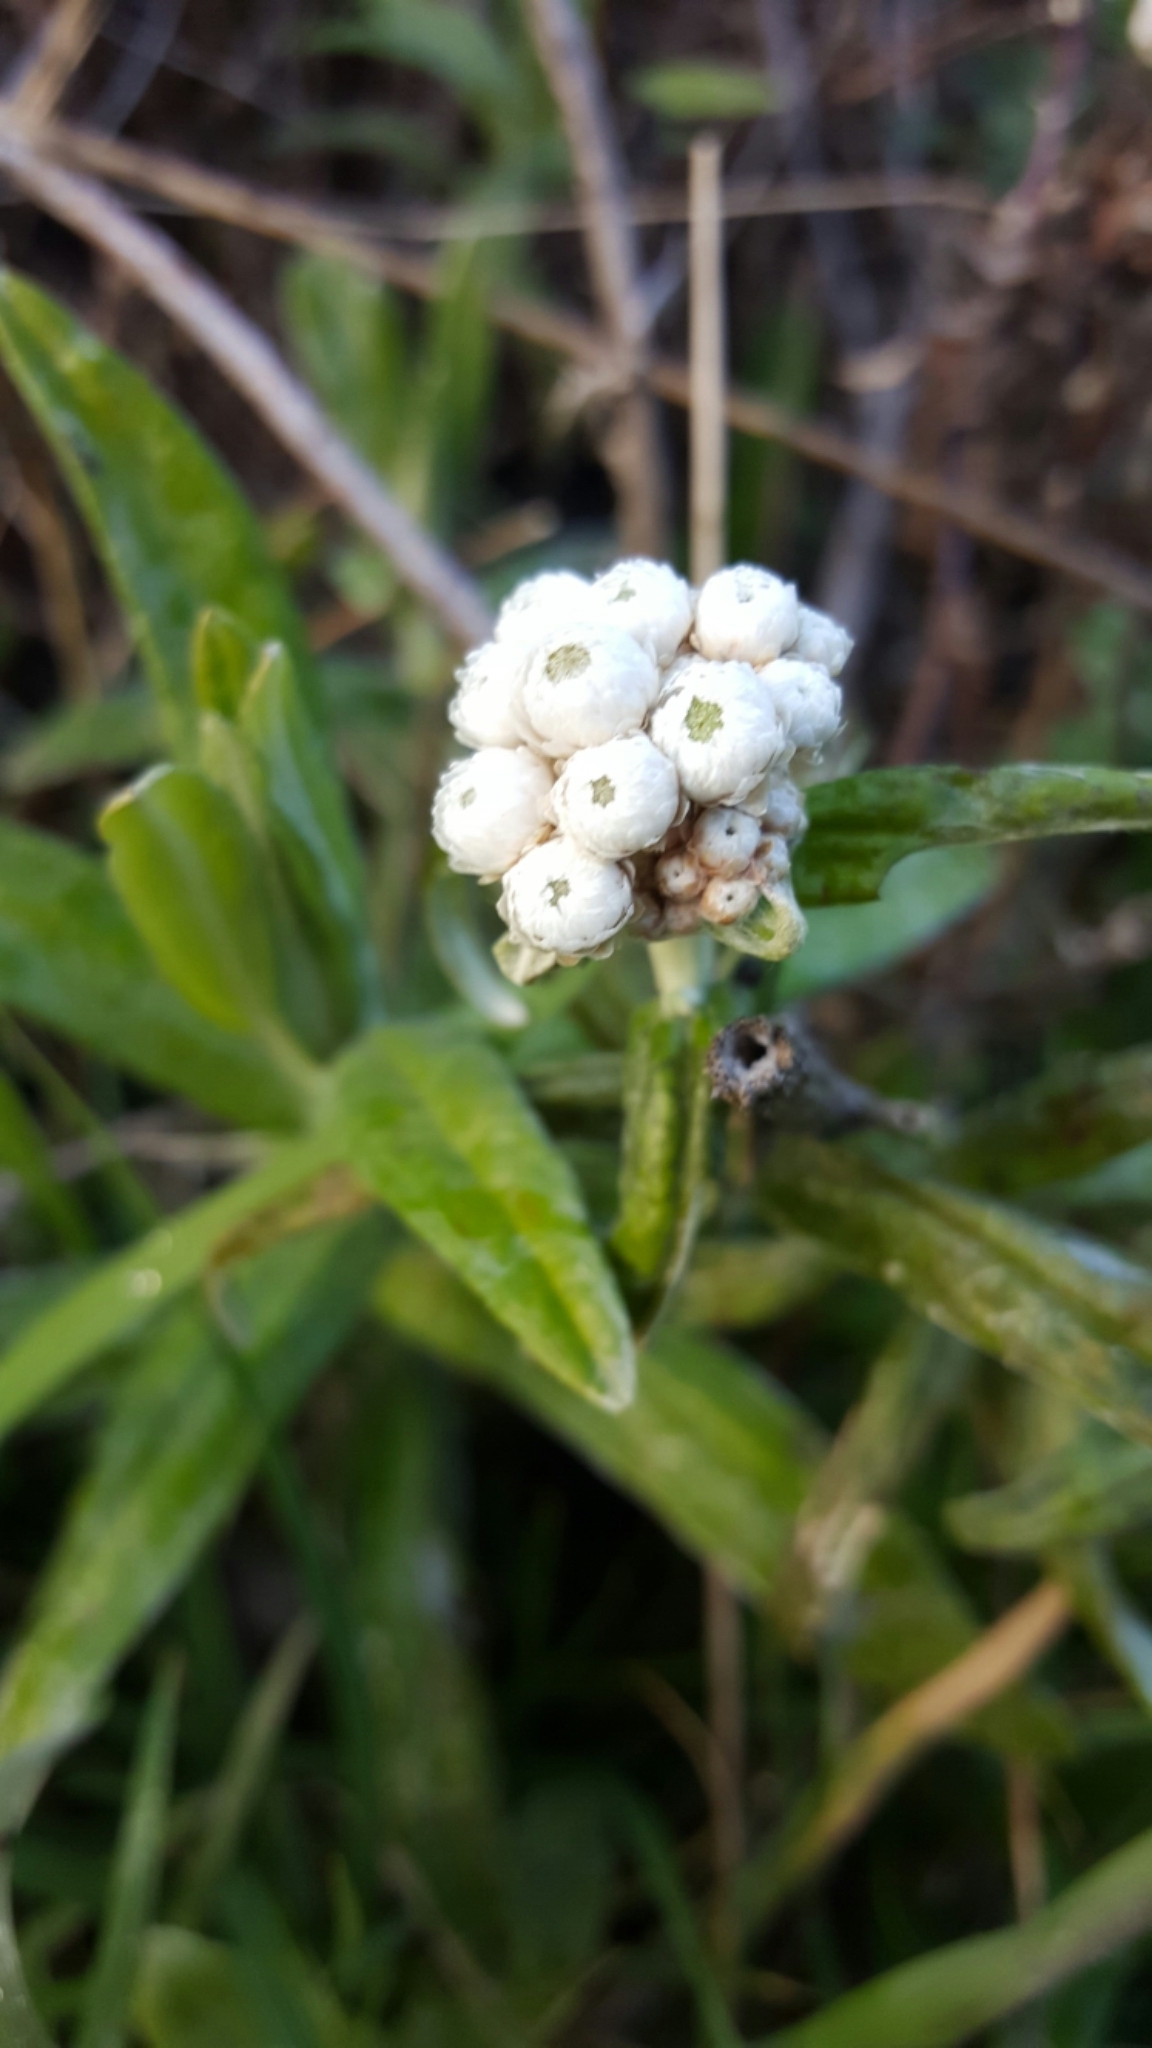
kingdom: Plantae
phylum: Tracheophyta
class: Magnoliopsida
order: Asterales
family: Asteraceae
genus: Anaphalis
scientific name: Anaphalis margaritacea
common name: Pearly everlasting
